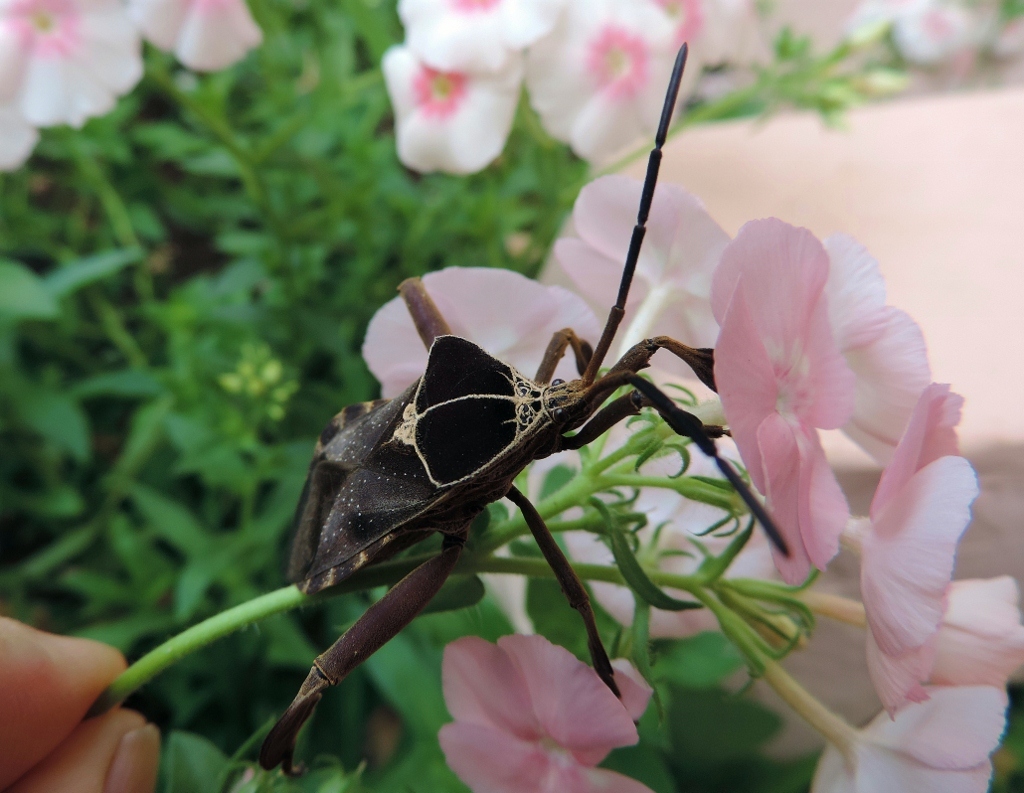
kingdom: Animalia
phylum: Arthropoda
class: Insecta
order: Hemiptera
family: Coreidae
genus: Petascelis
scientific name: Petascelis remipes
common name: Giant twig wilter
